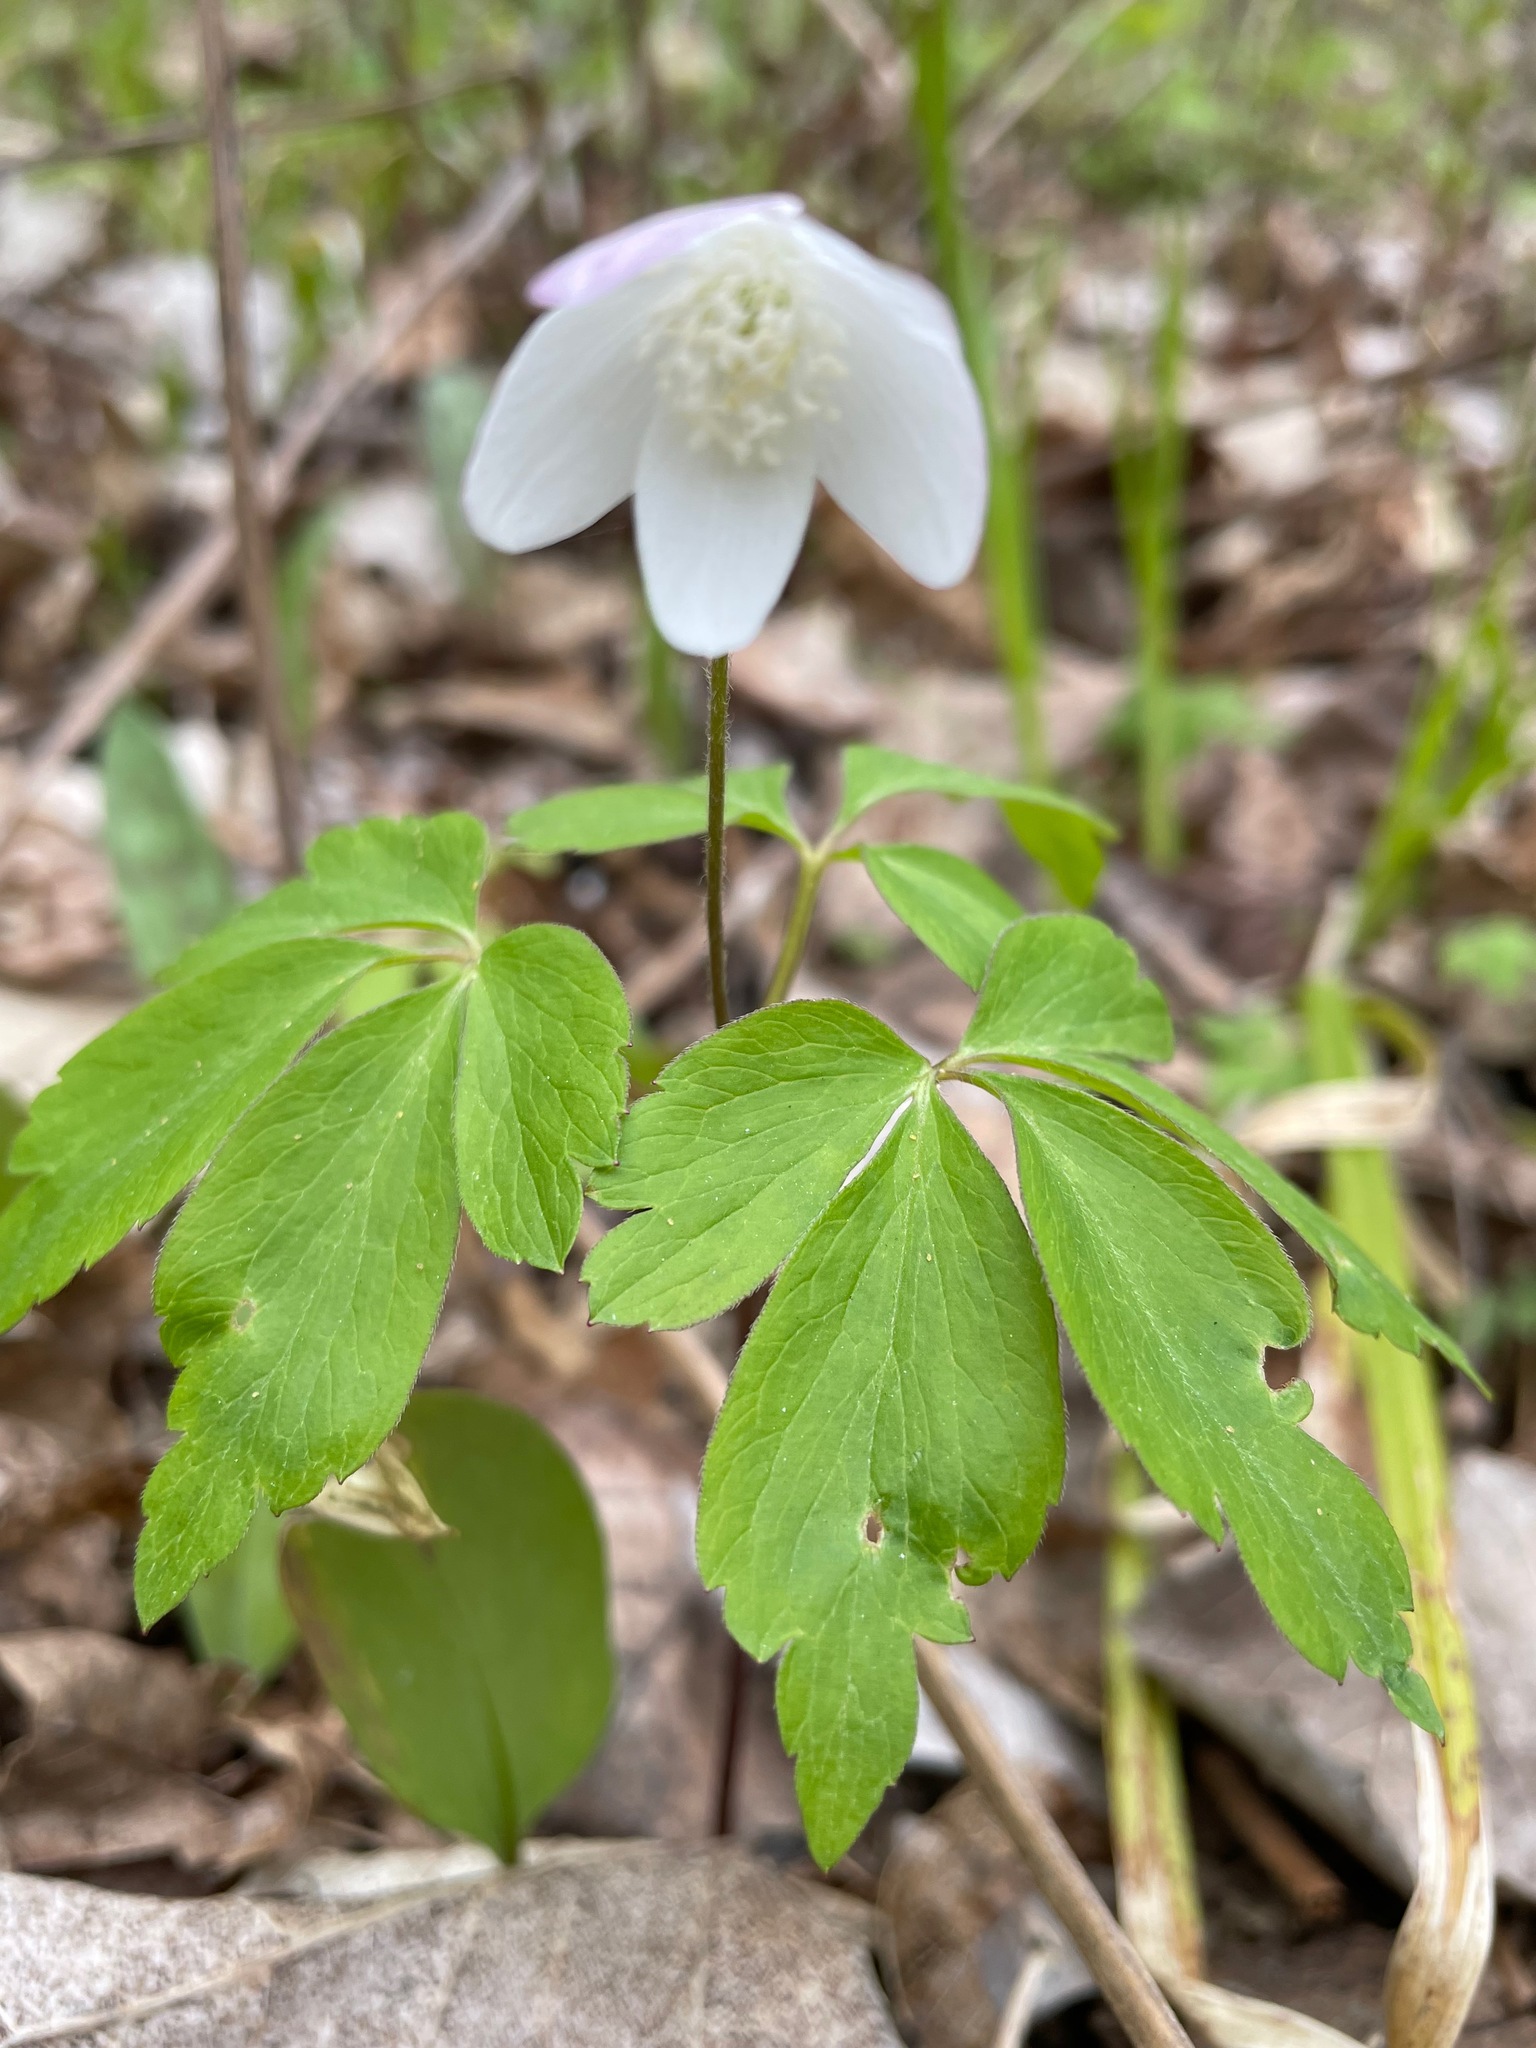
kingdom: Plantae
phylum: Tracheophyta
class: Magnoliopsida
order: Ranunculales
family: Ranunculaceae
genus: Anemone
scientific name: Anemone quinquefolia
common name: Wood anemone
